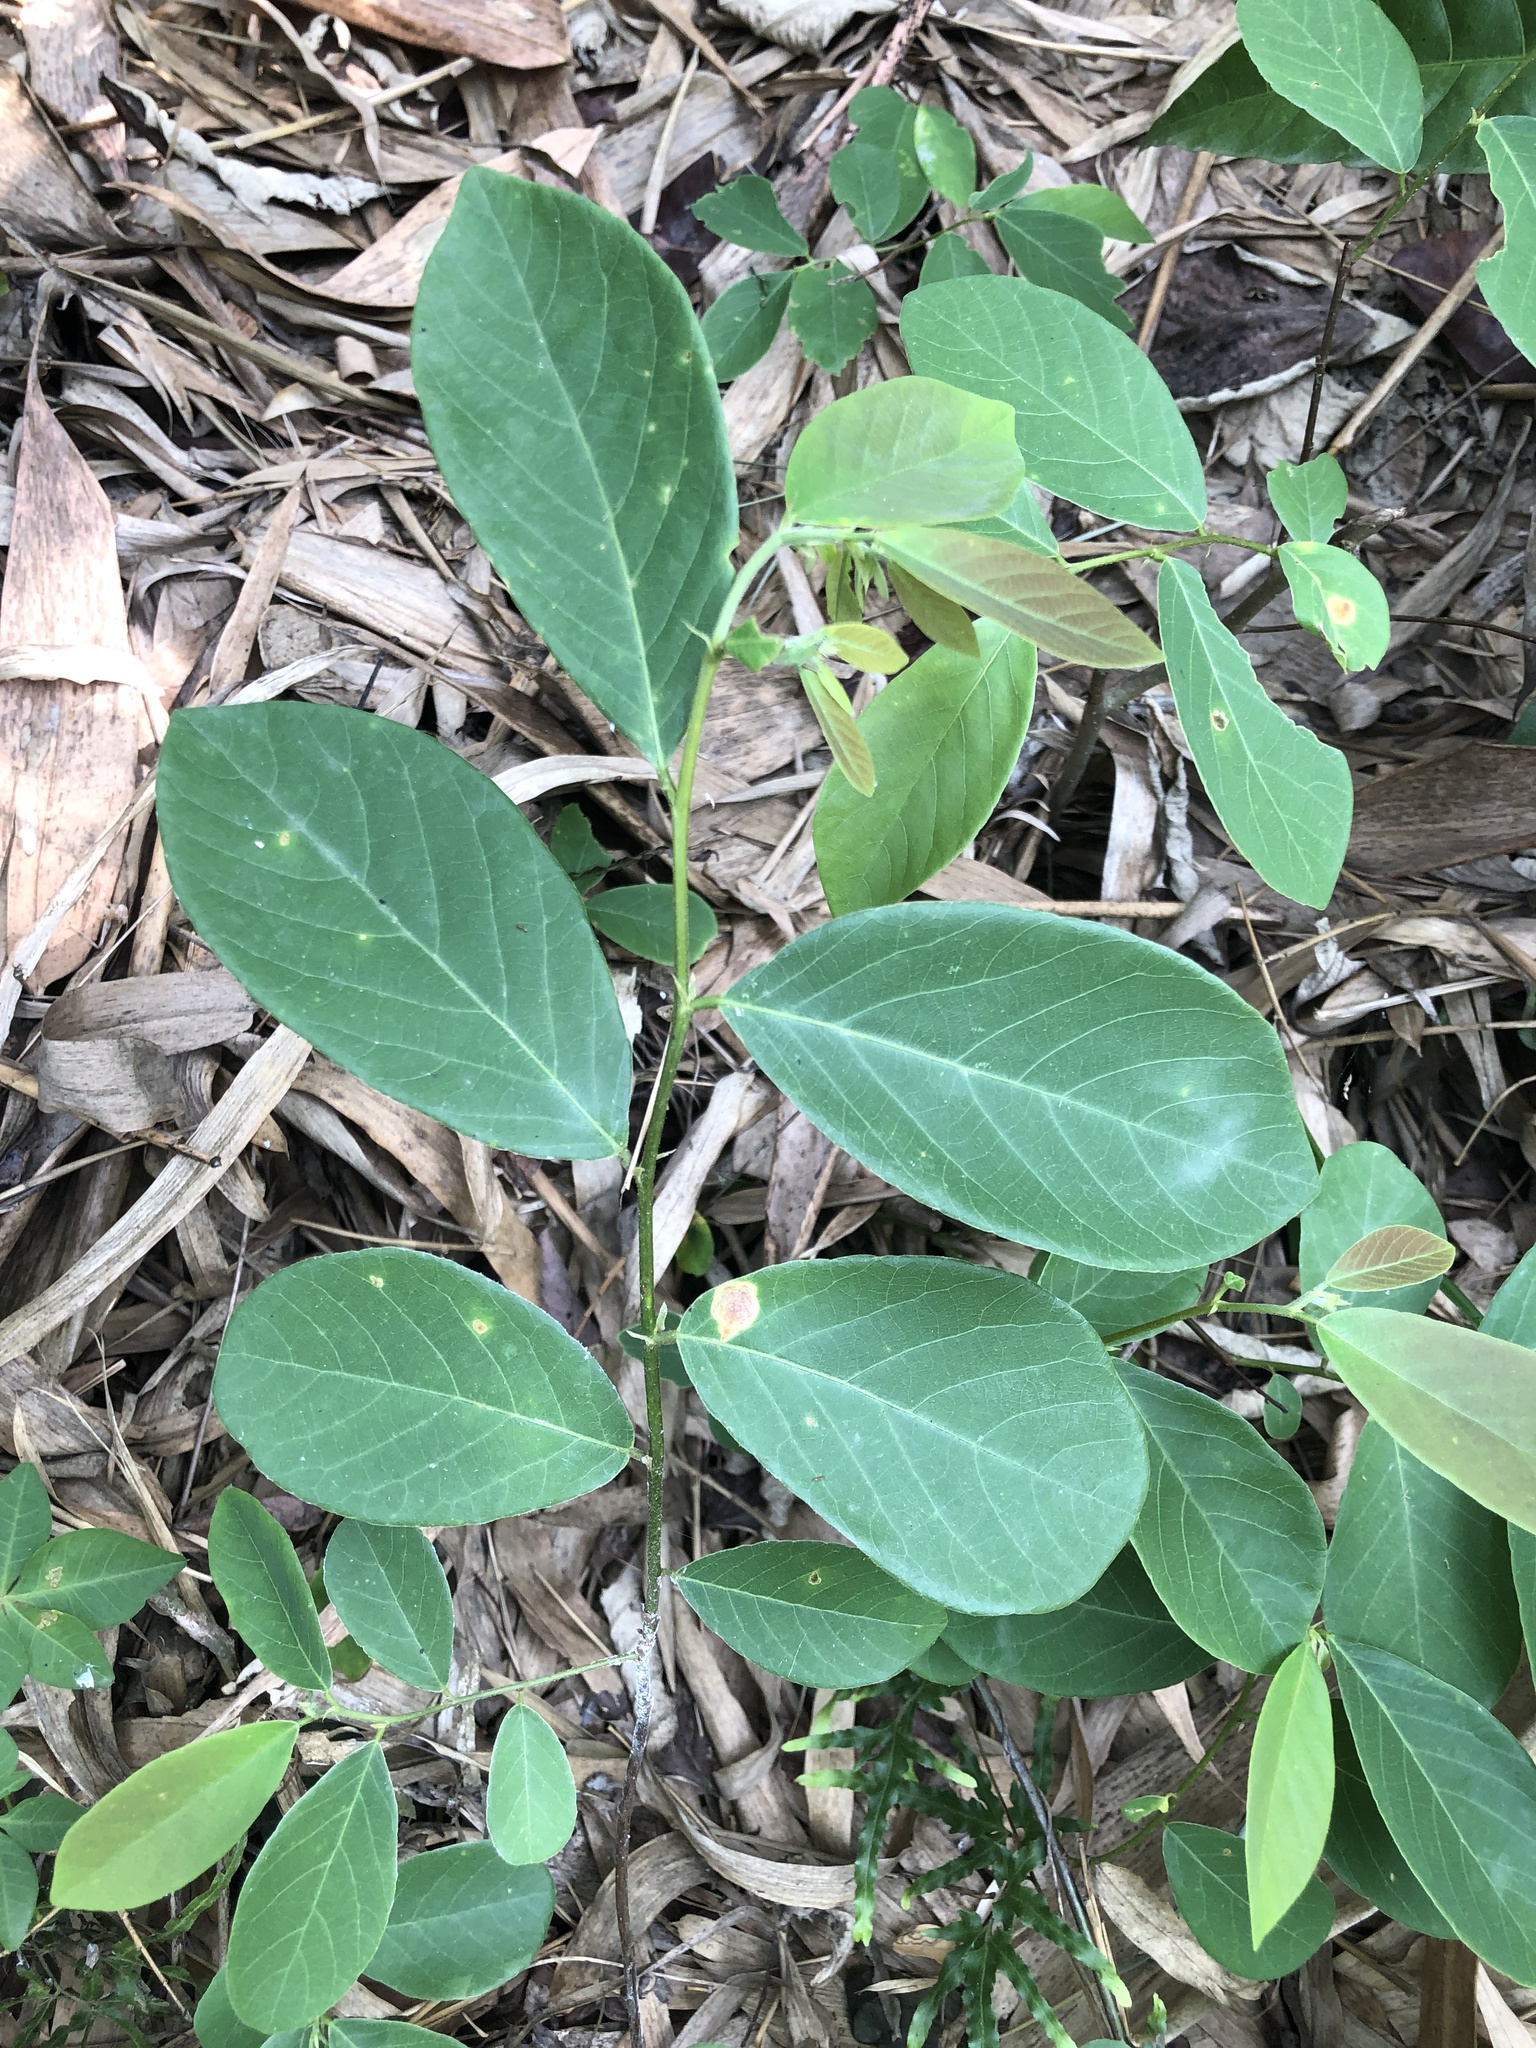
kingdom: Plantae
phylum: Tracheophyta
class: Magnoliopsida
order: Malpighiales
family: Phyllanthaceae
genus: Bridelia
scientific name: Bridelia tomentosa
